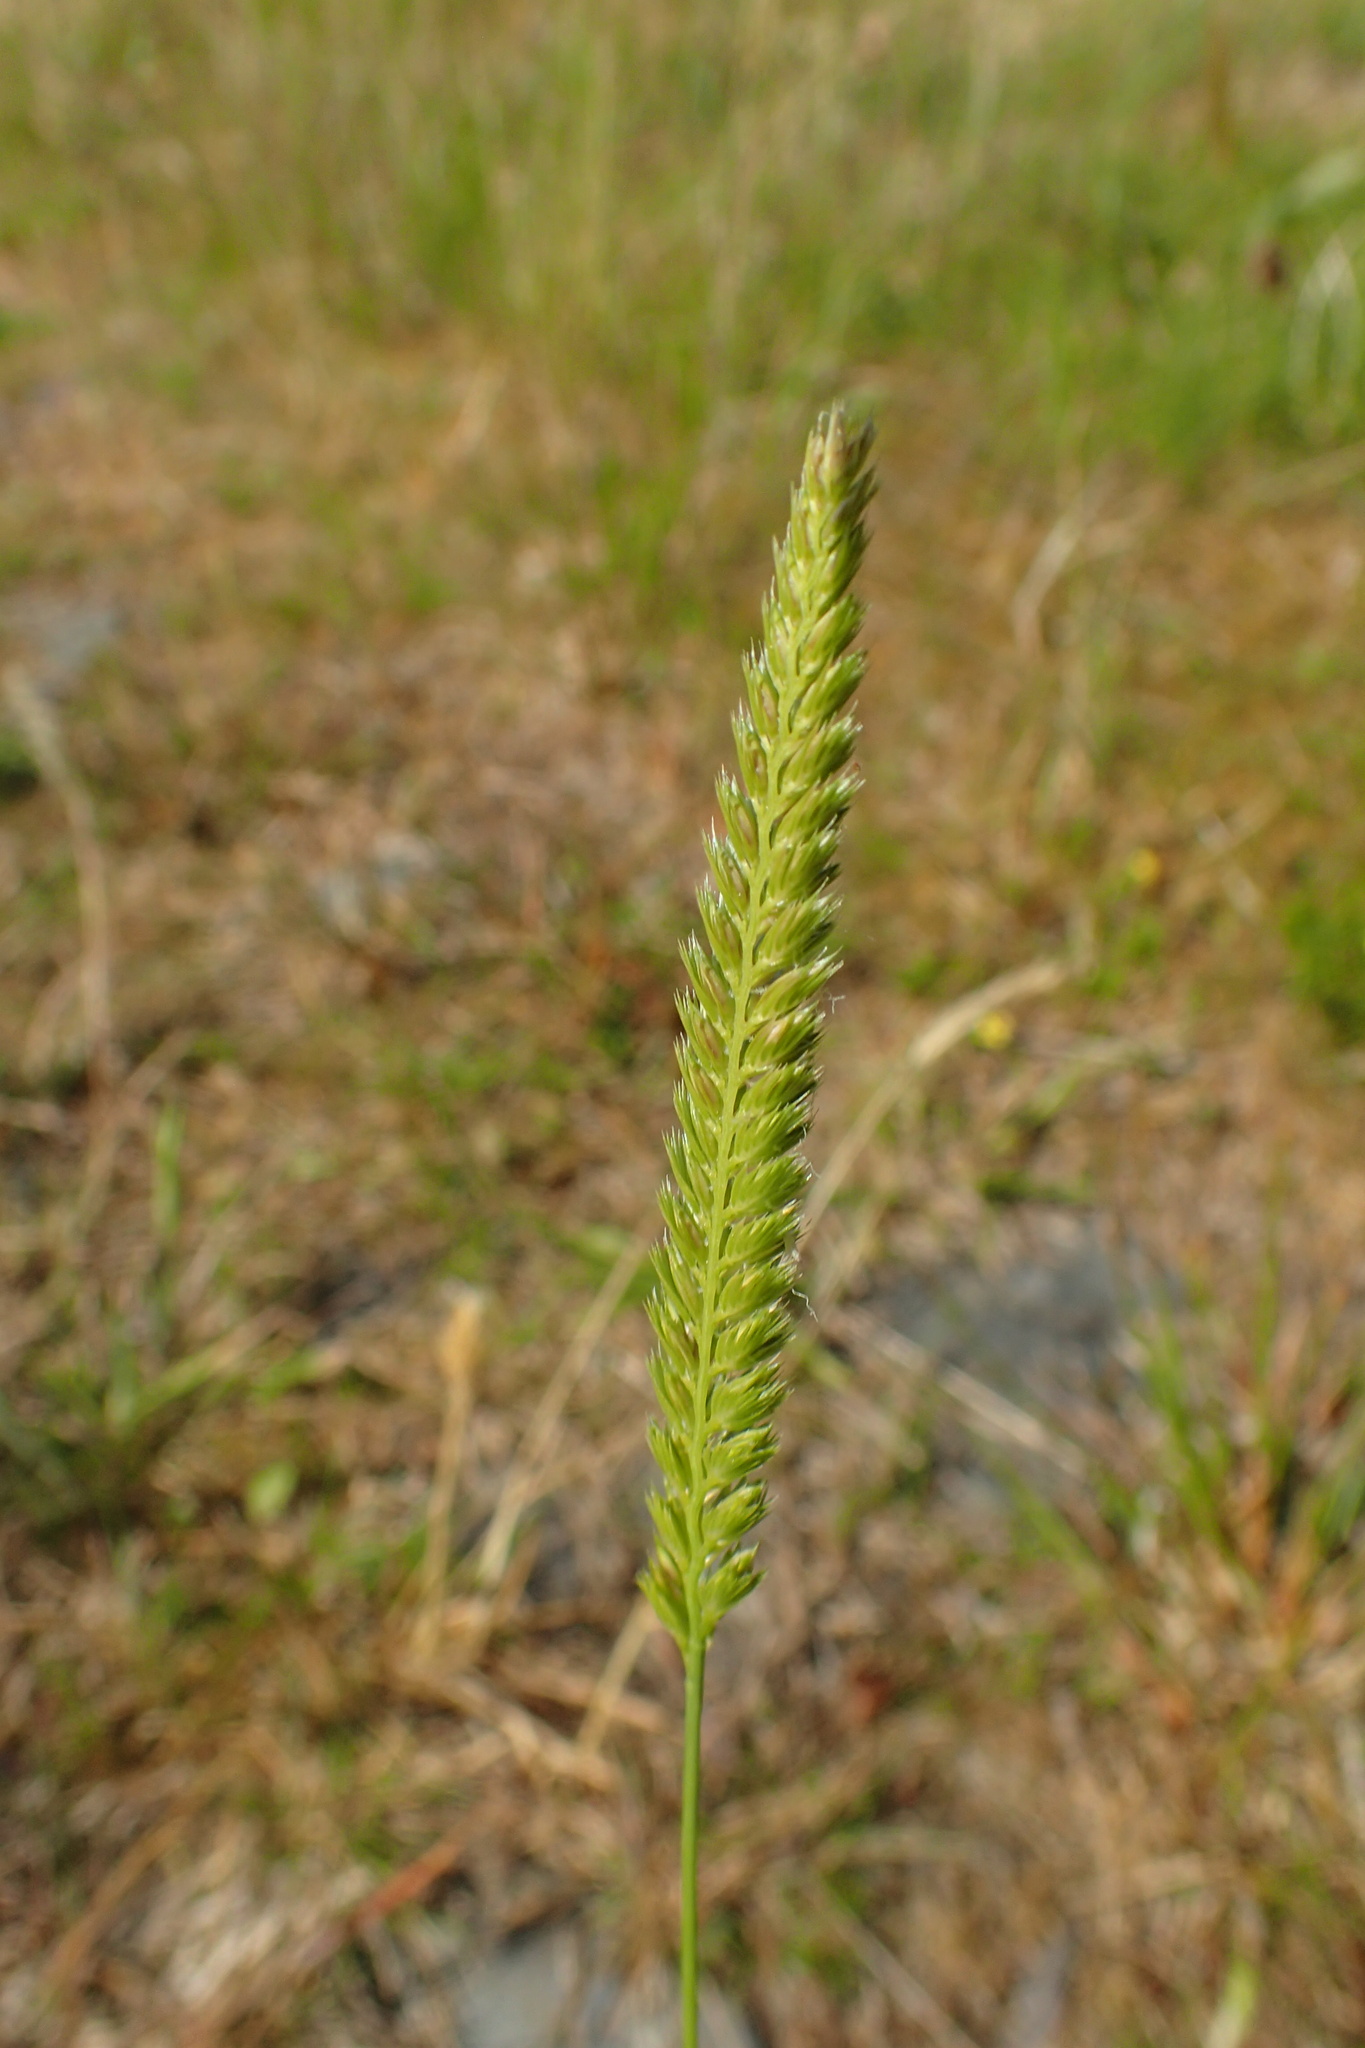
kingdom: Plantae
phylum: Tracheophyta
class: Liliopsida
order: Poales
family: Poaceae
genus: Cynosurus
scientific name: Cynosurus cristatus
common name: Crested dog's-tail
